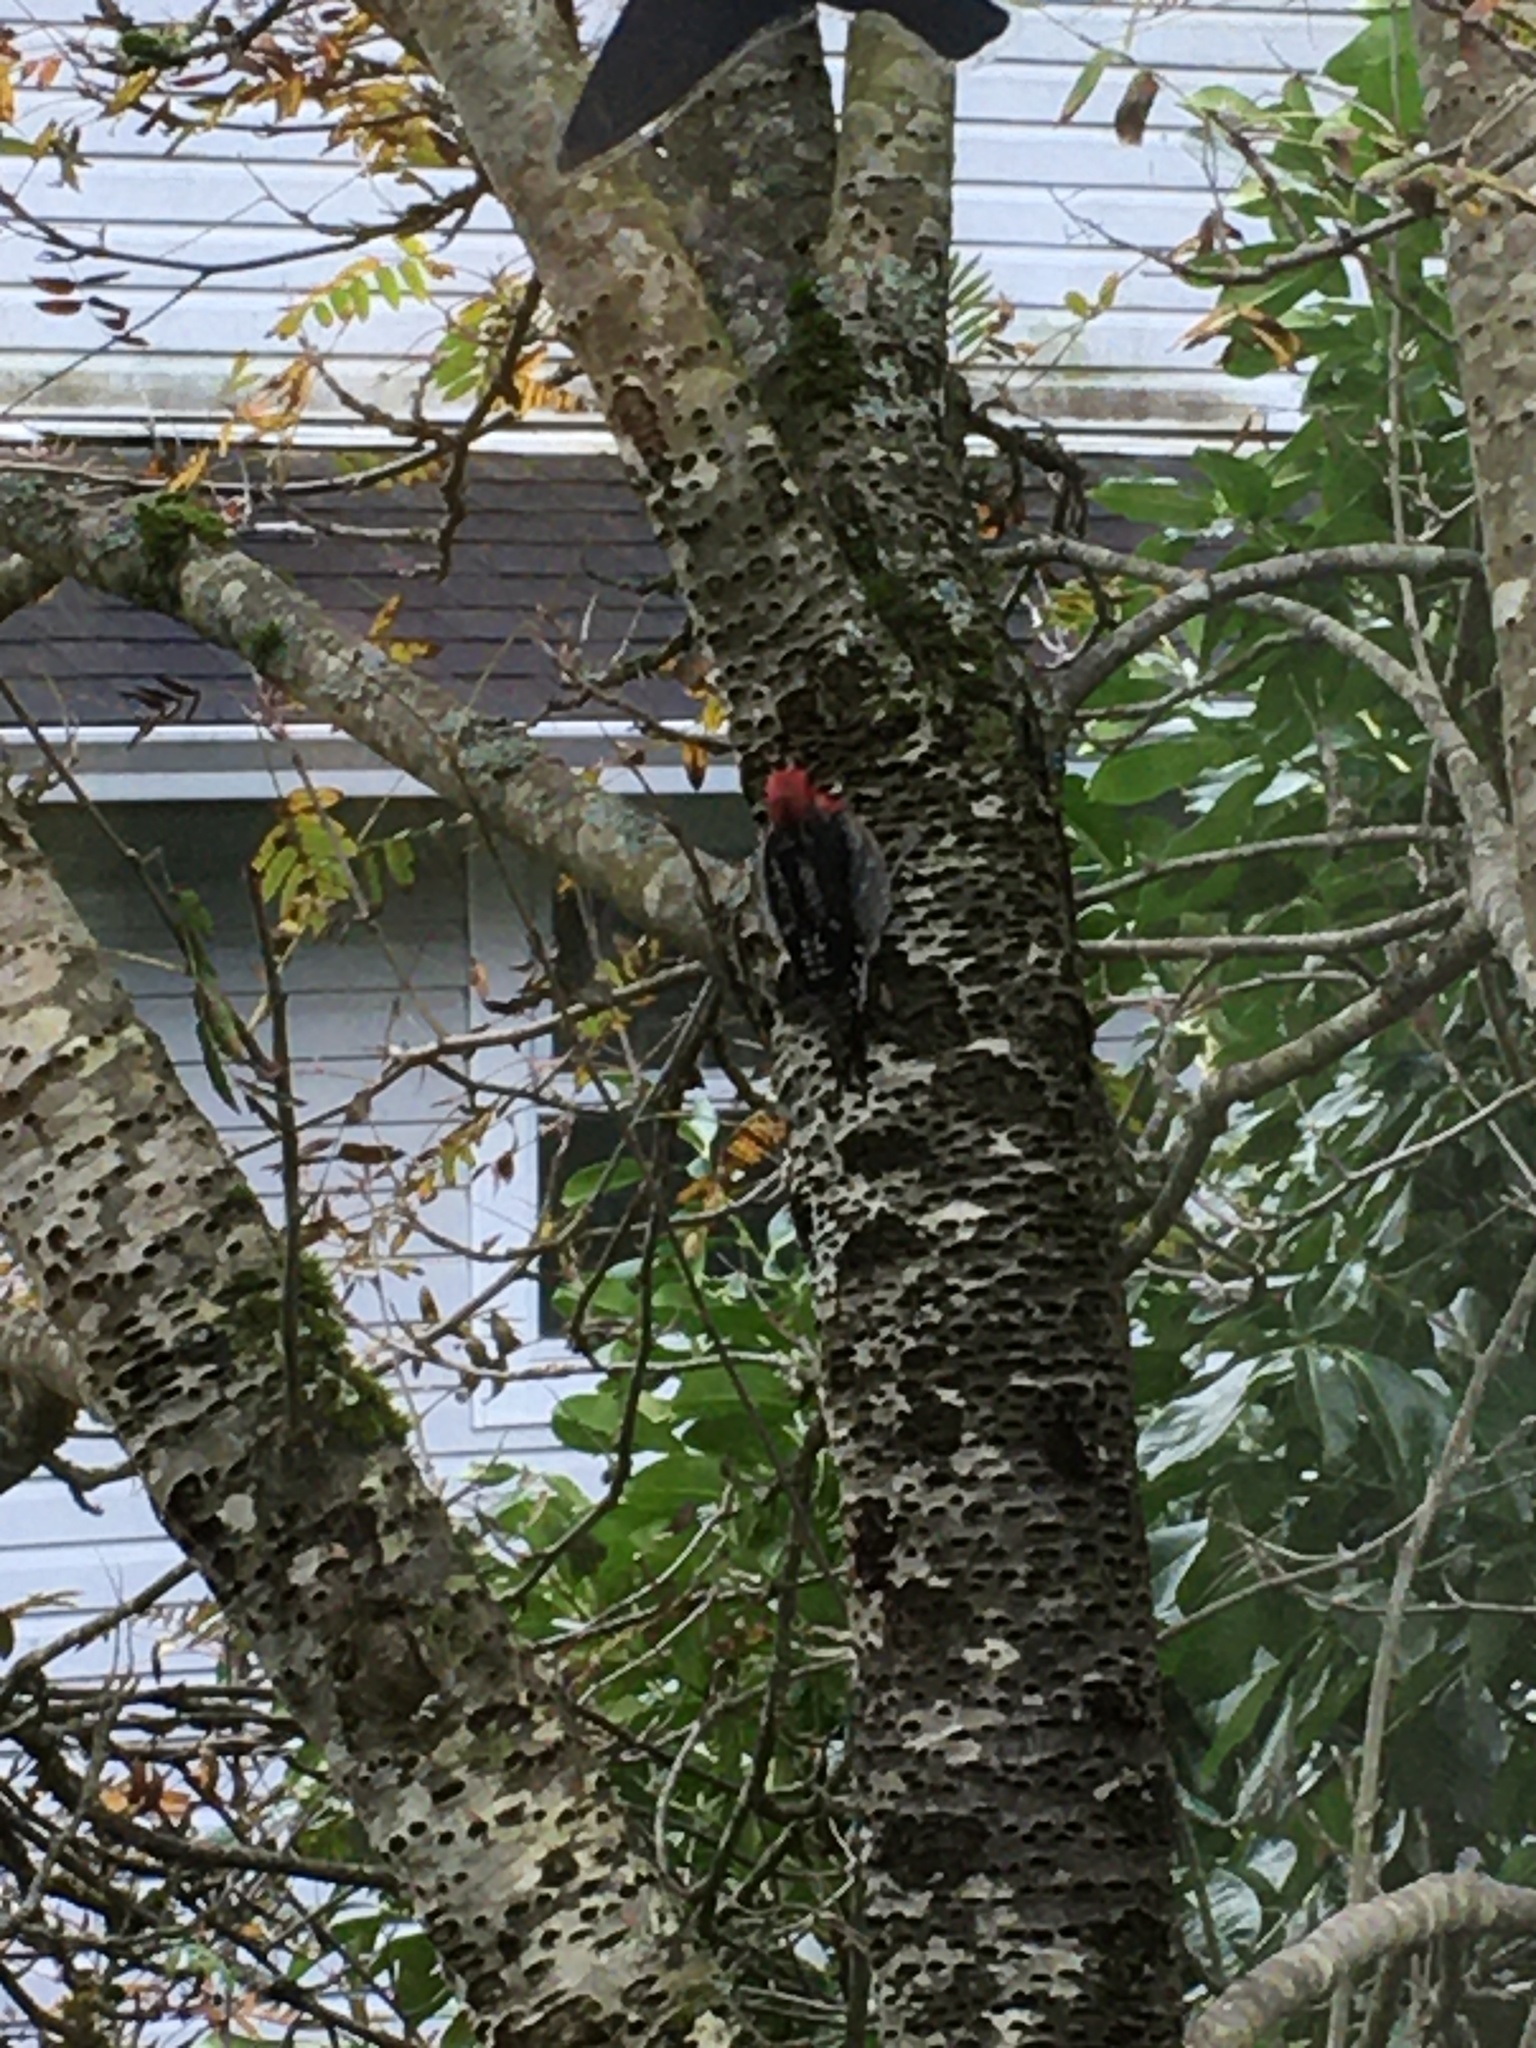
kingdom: Animalia
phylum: Chordata
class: Aves
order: Piciformes
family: Picidae
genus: Sphyrapicus
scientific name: Sphyrapicus ruber
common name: Red-breasted sapsucker
